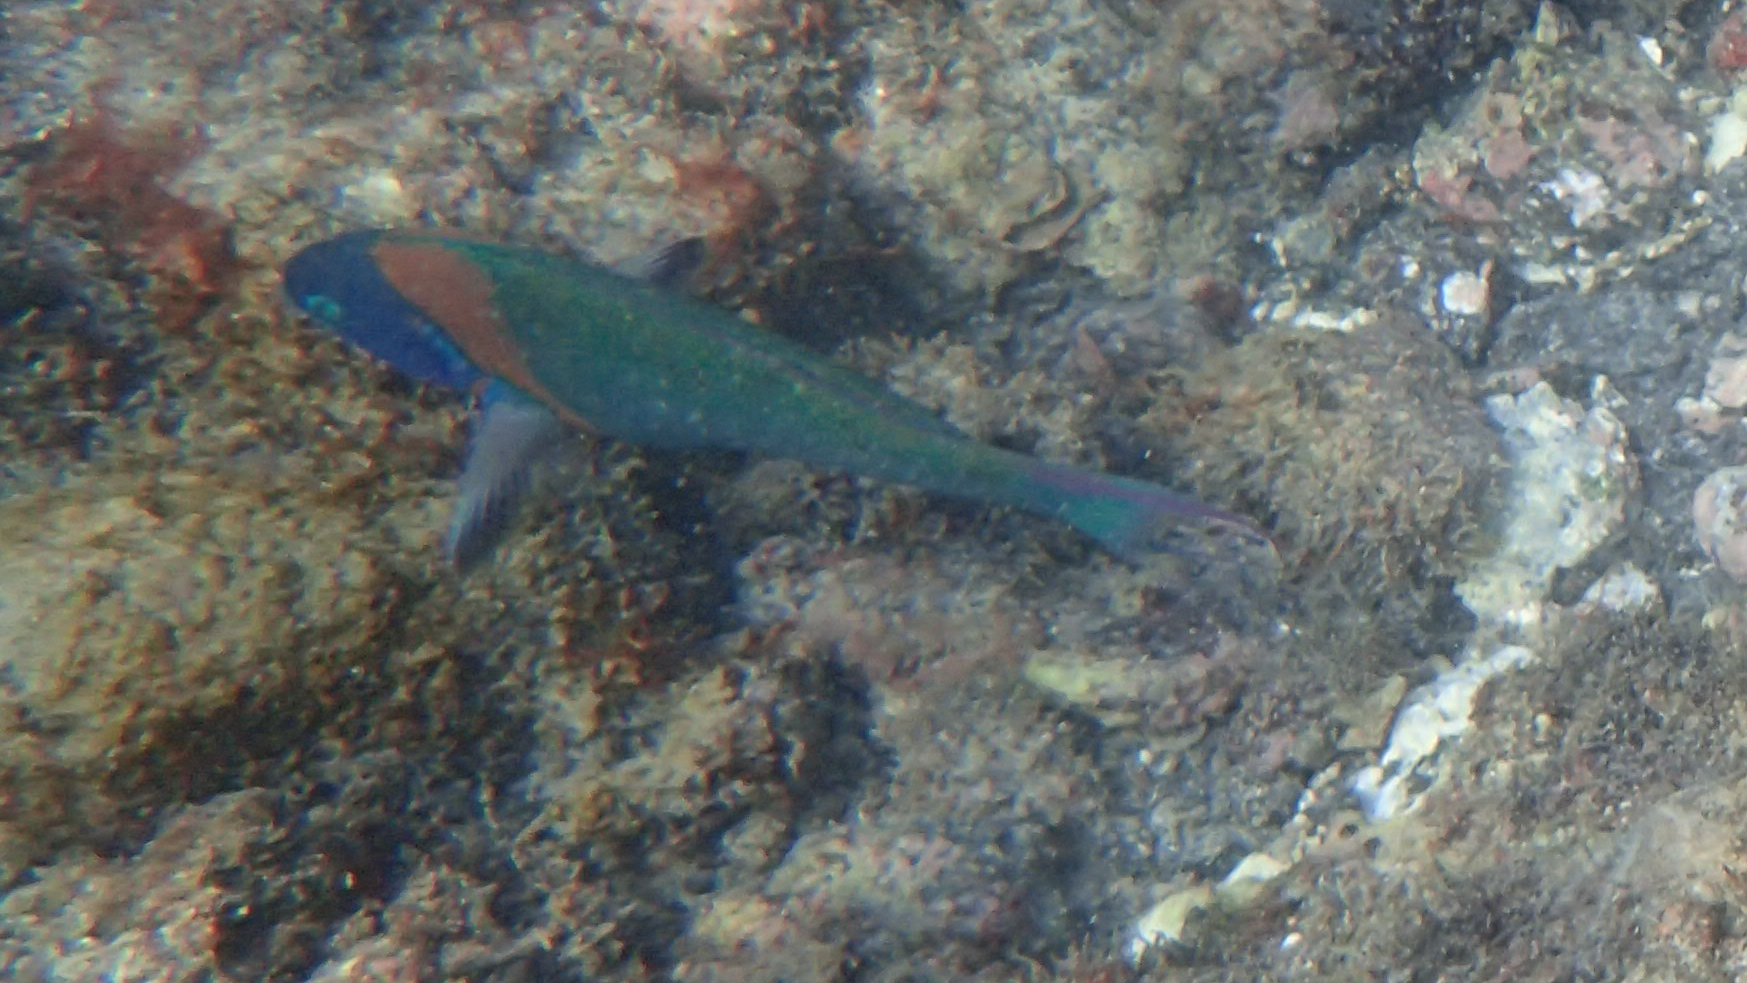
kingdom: Animalia
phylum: Chordata
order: Perciformes
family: Labridae
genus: Thalassoma
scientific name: Thalassoma duperrey
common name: Saddle wrasse
